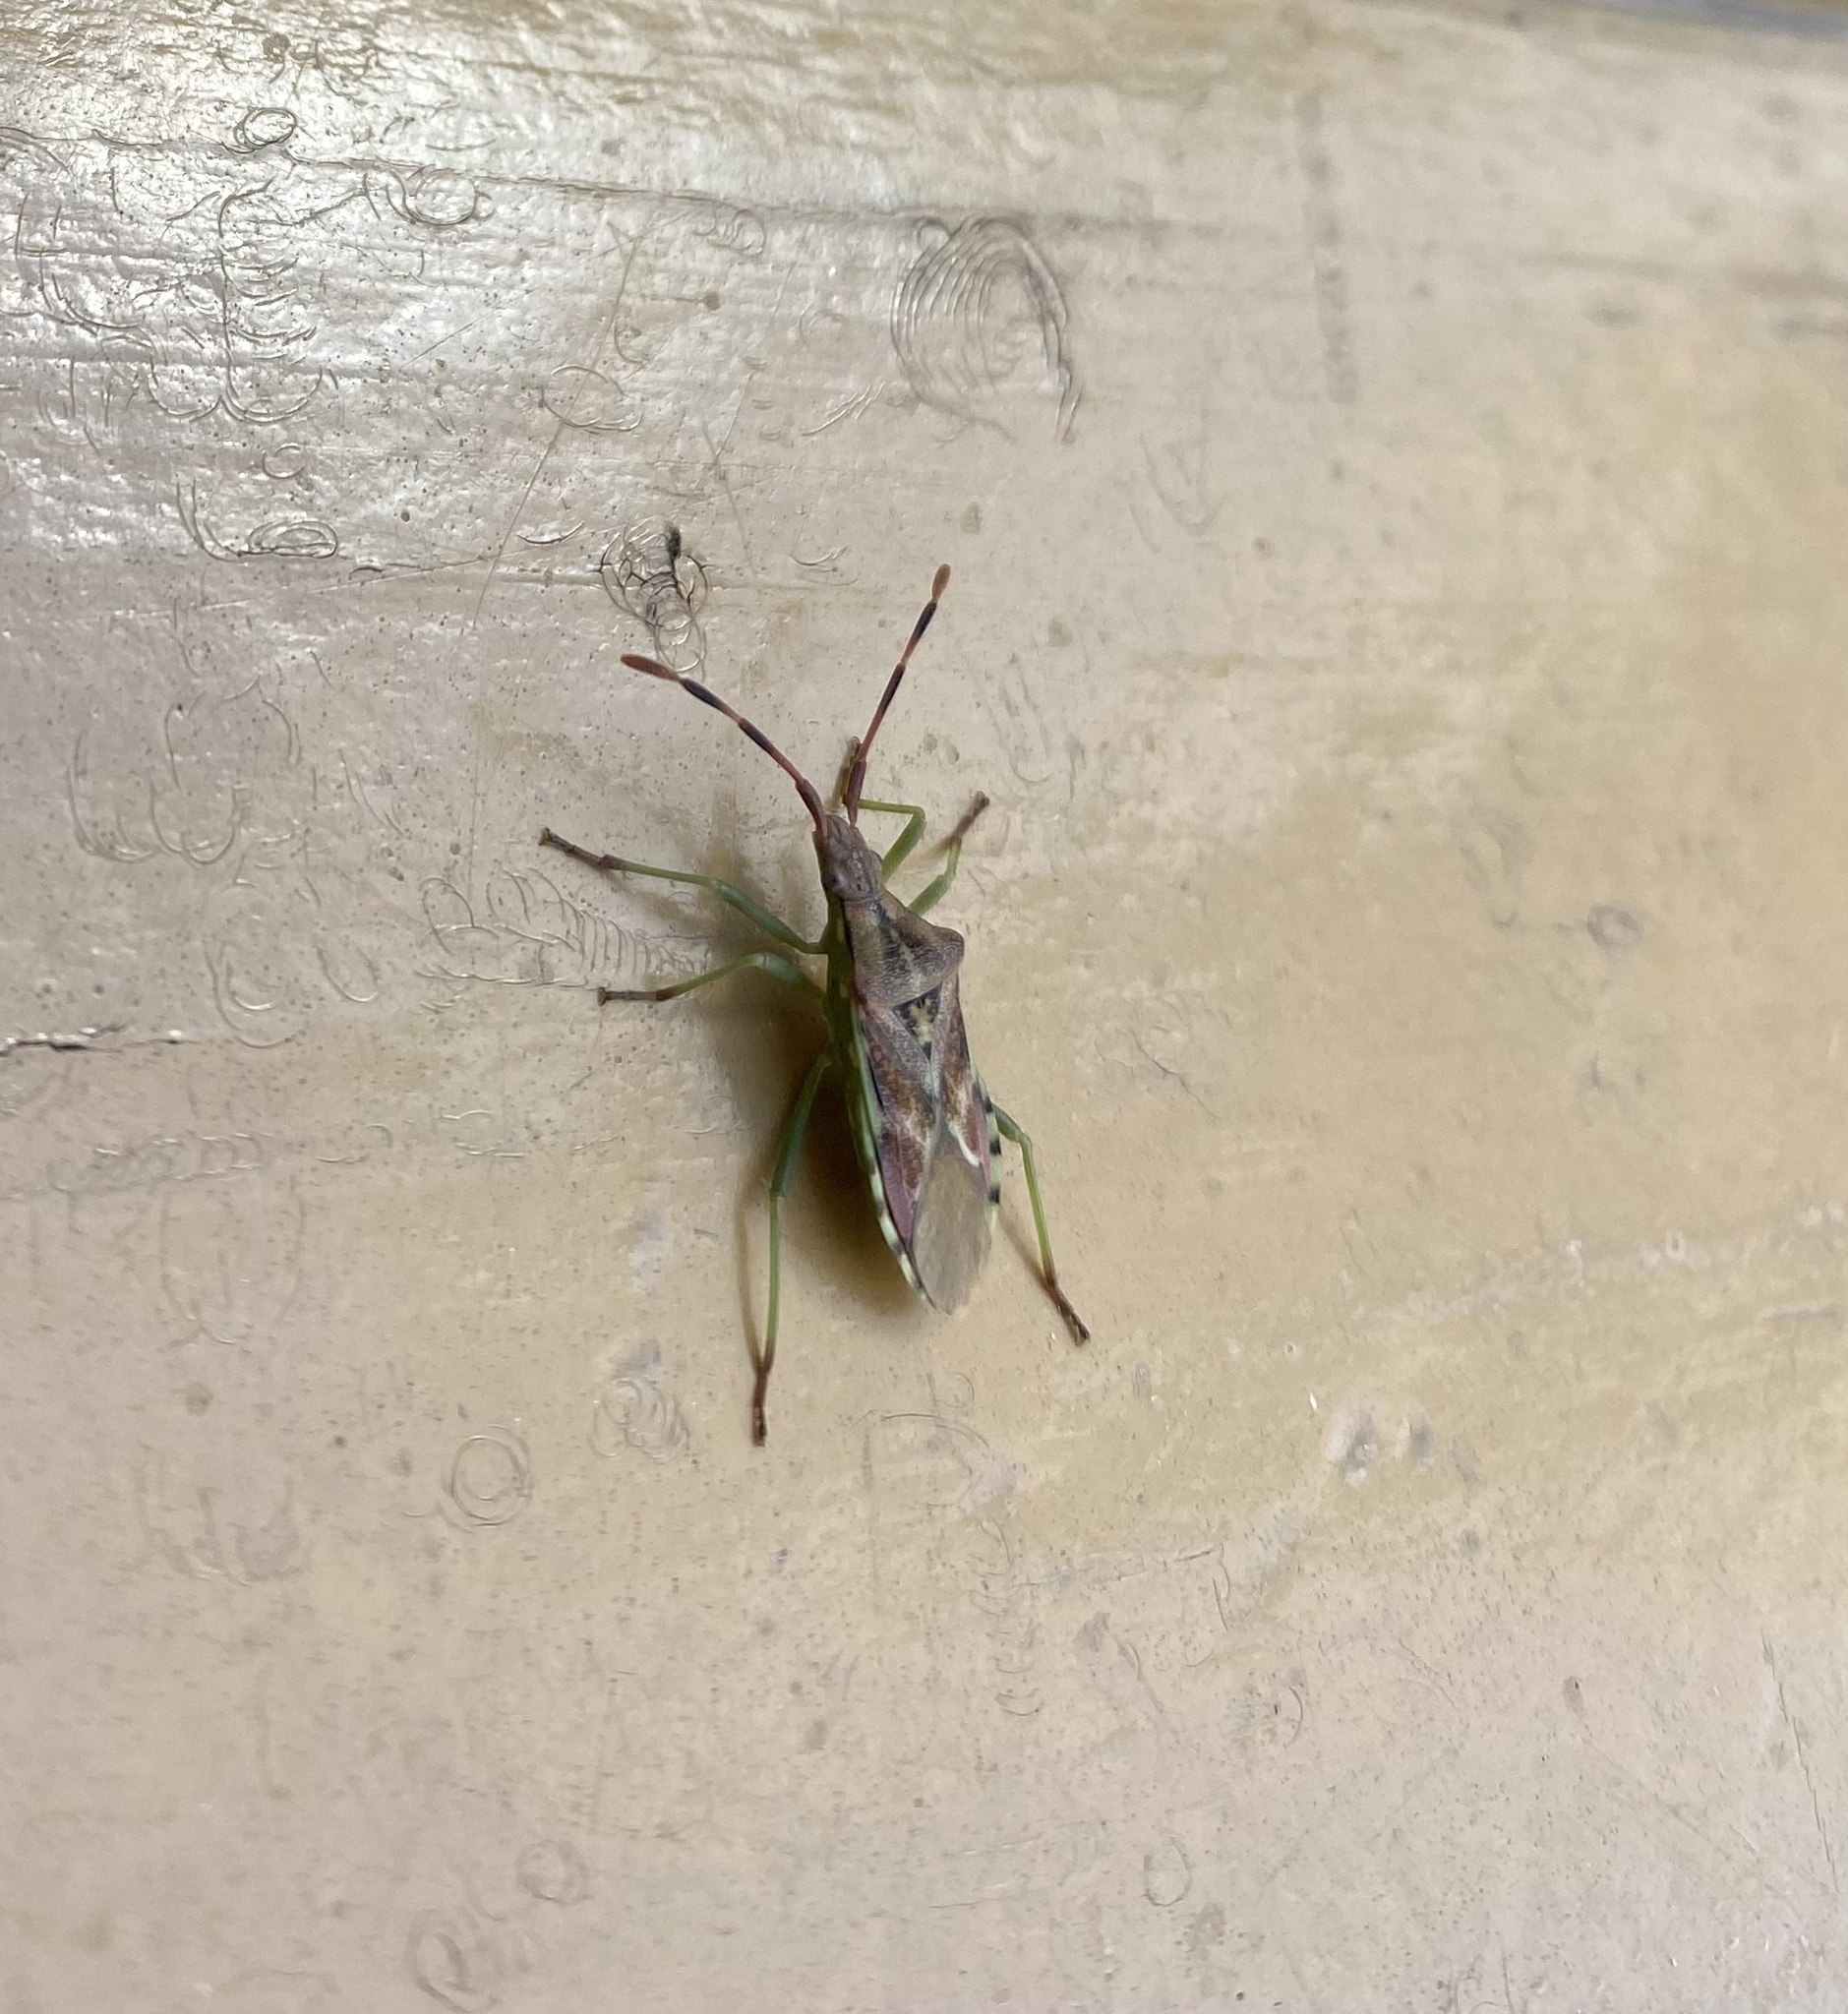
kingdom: Animalia
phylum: Arthropoda
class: Insecta
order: Hemiptera
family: Coreidae
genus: Gonocerus
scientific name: Gonocerus juniperi
